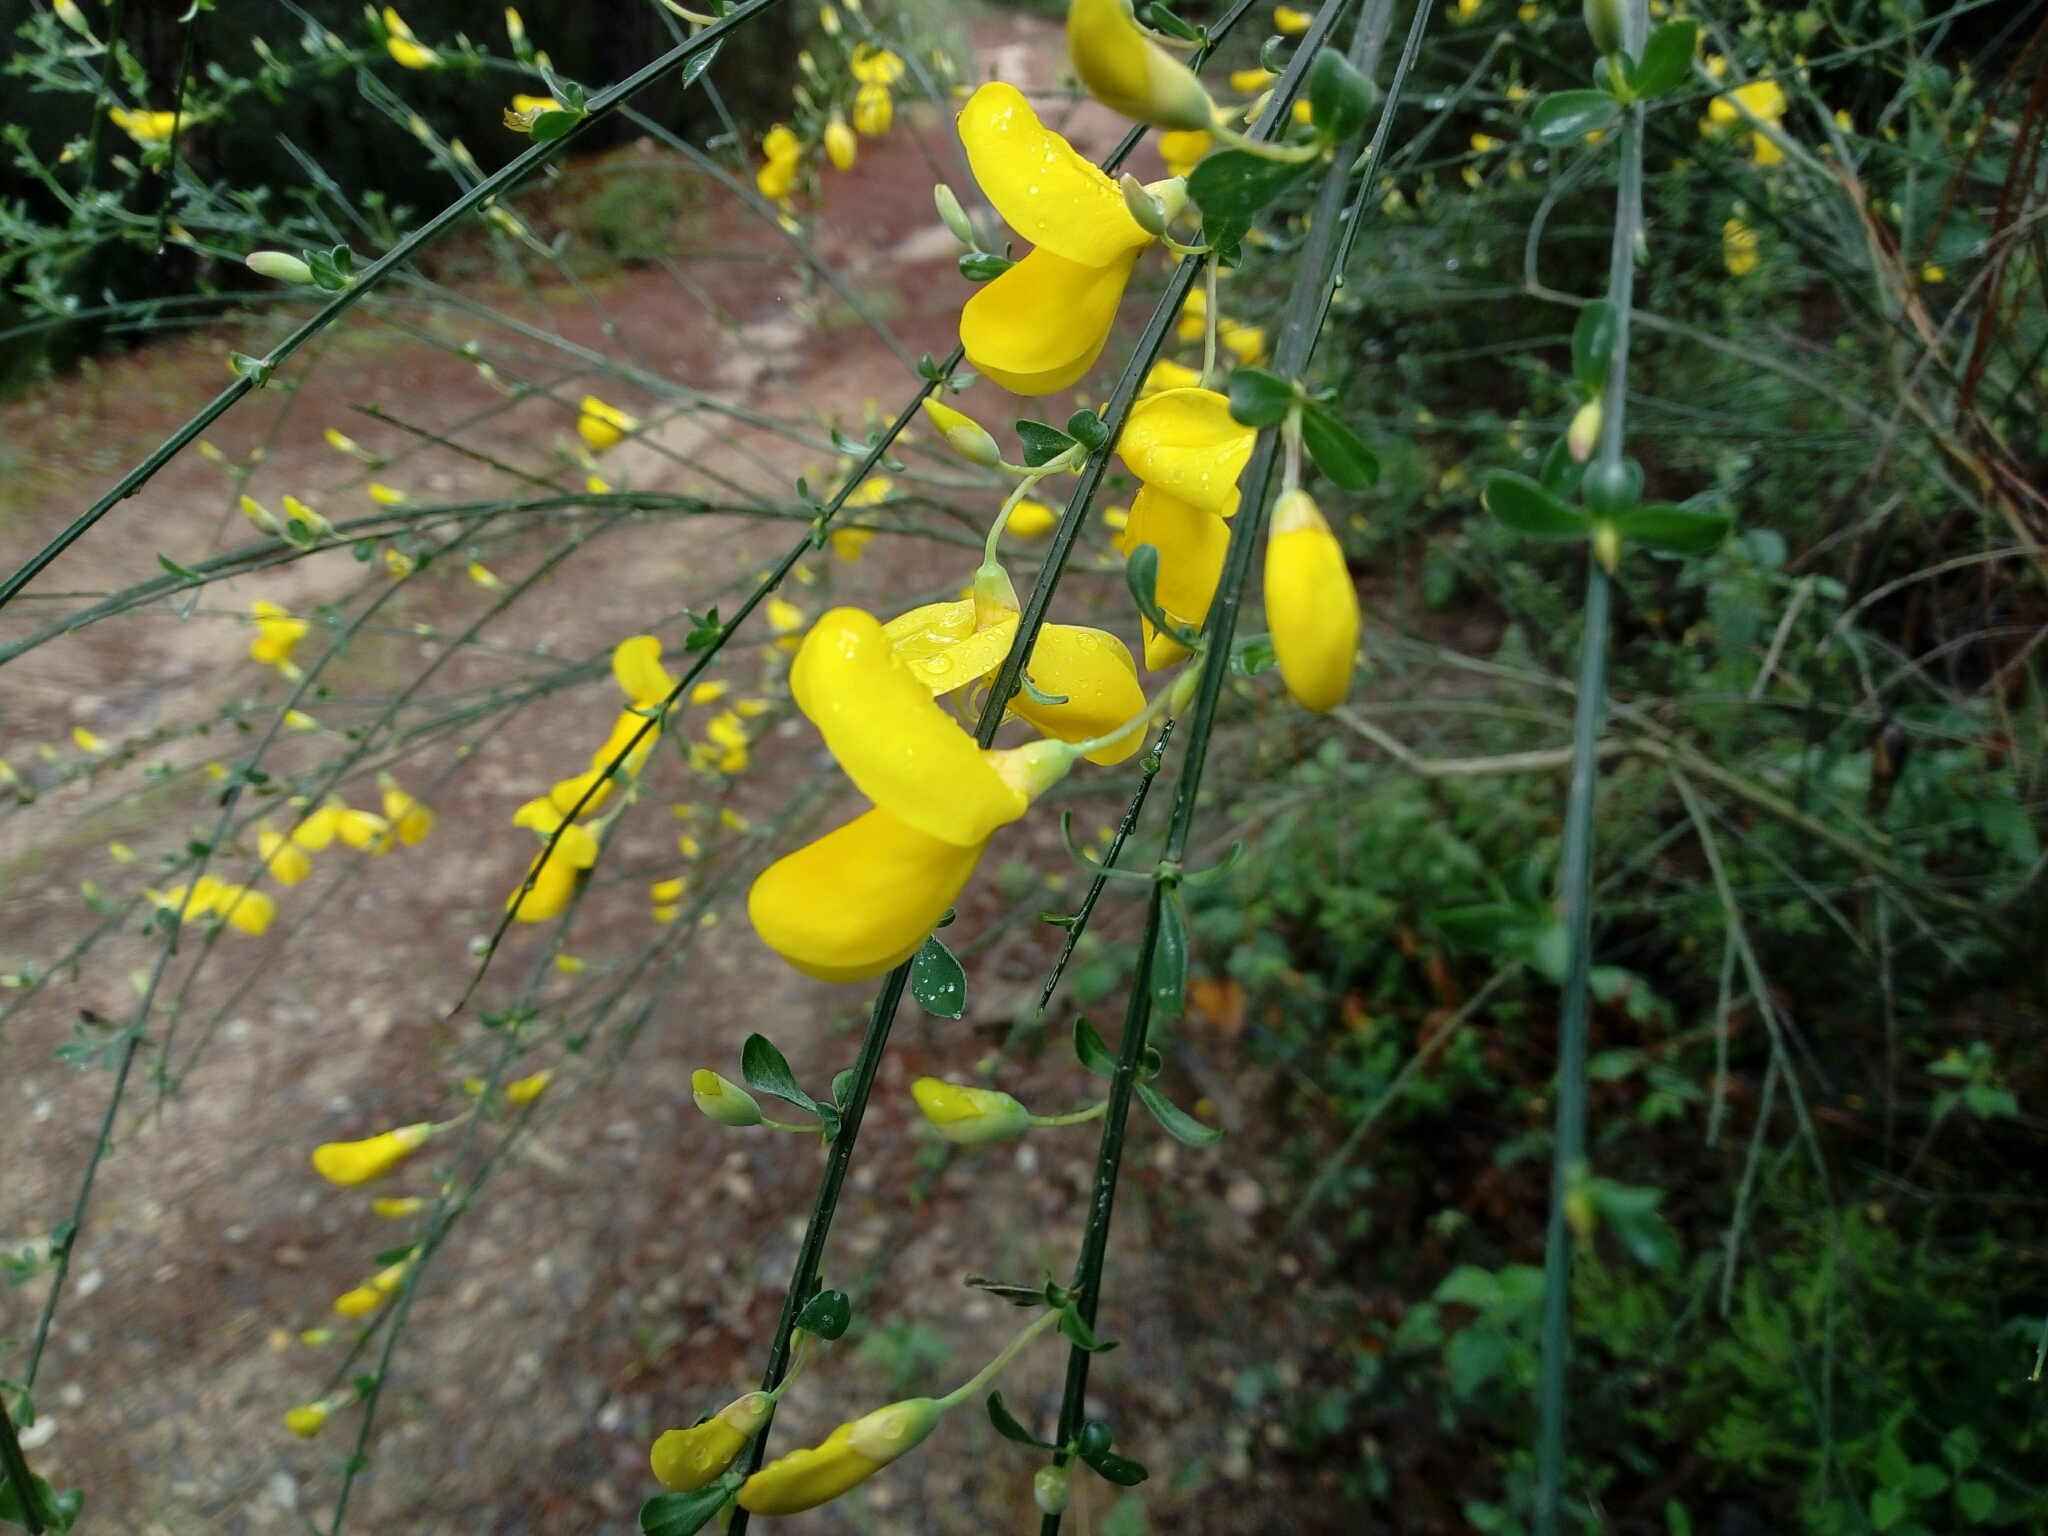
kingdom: Plantae
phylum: Tracheophyta
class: Magnoliopsida
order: Fabales
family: Fabaceae
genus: Cytisus
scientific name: Cytisus scoparius
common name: Scotch broom
